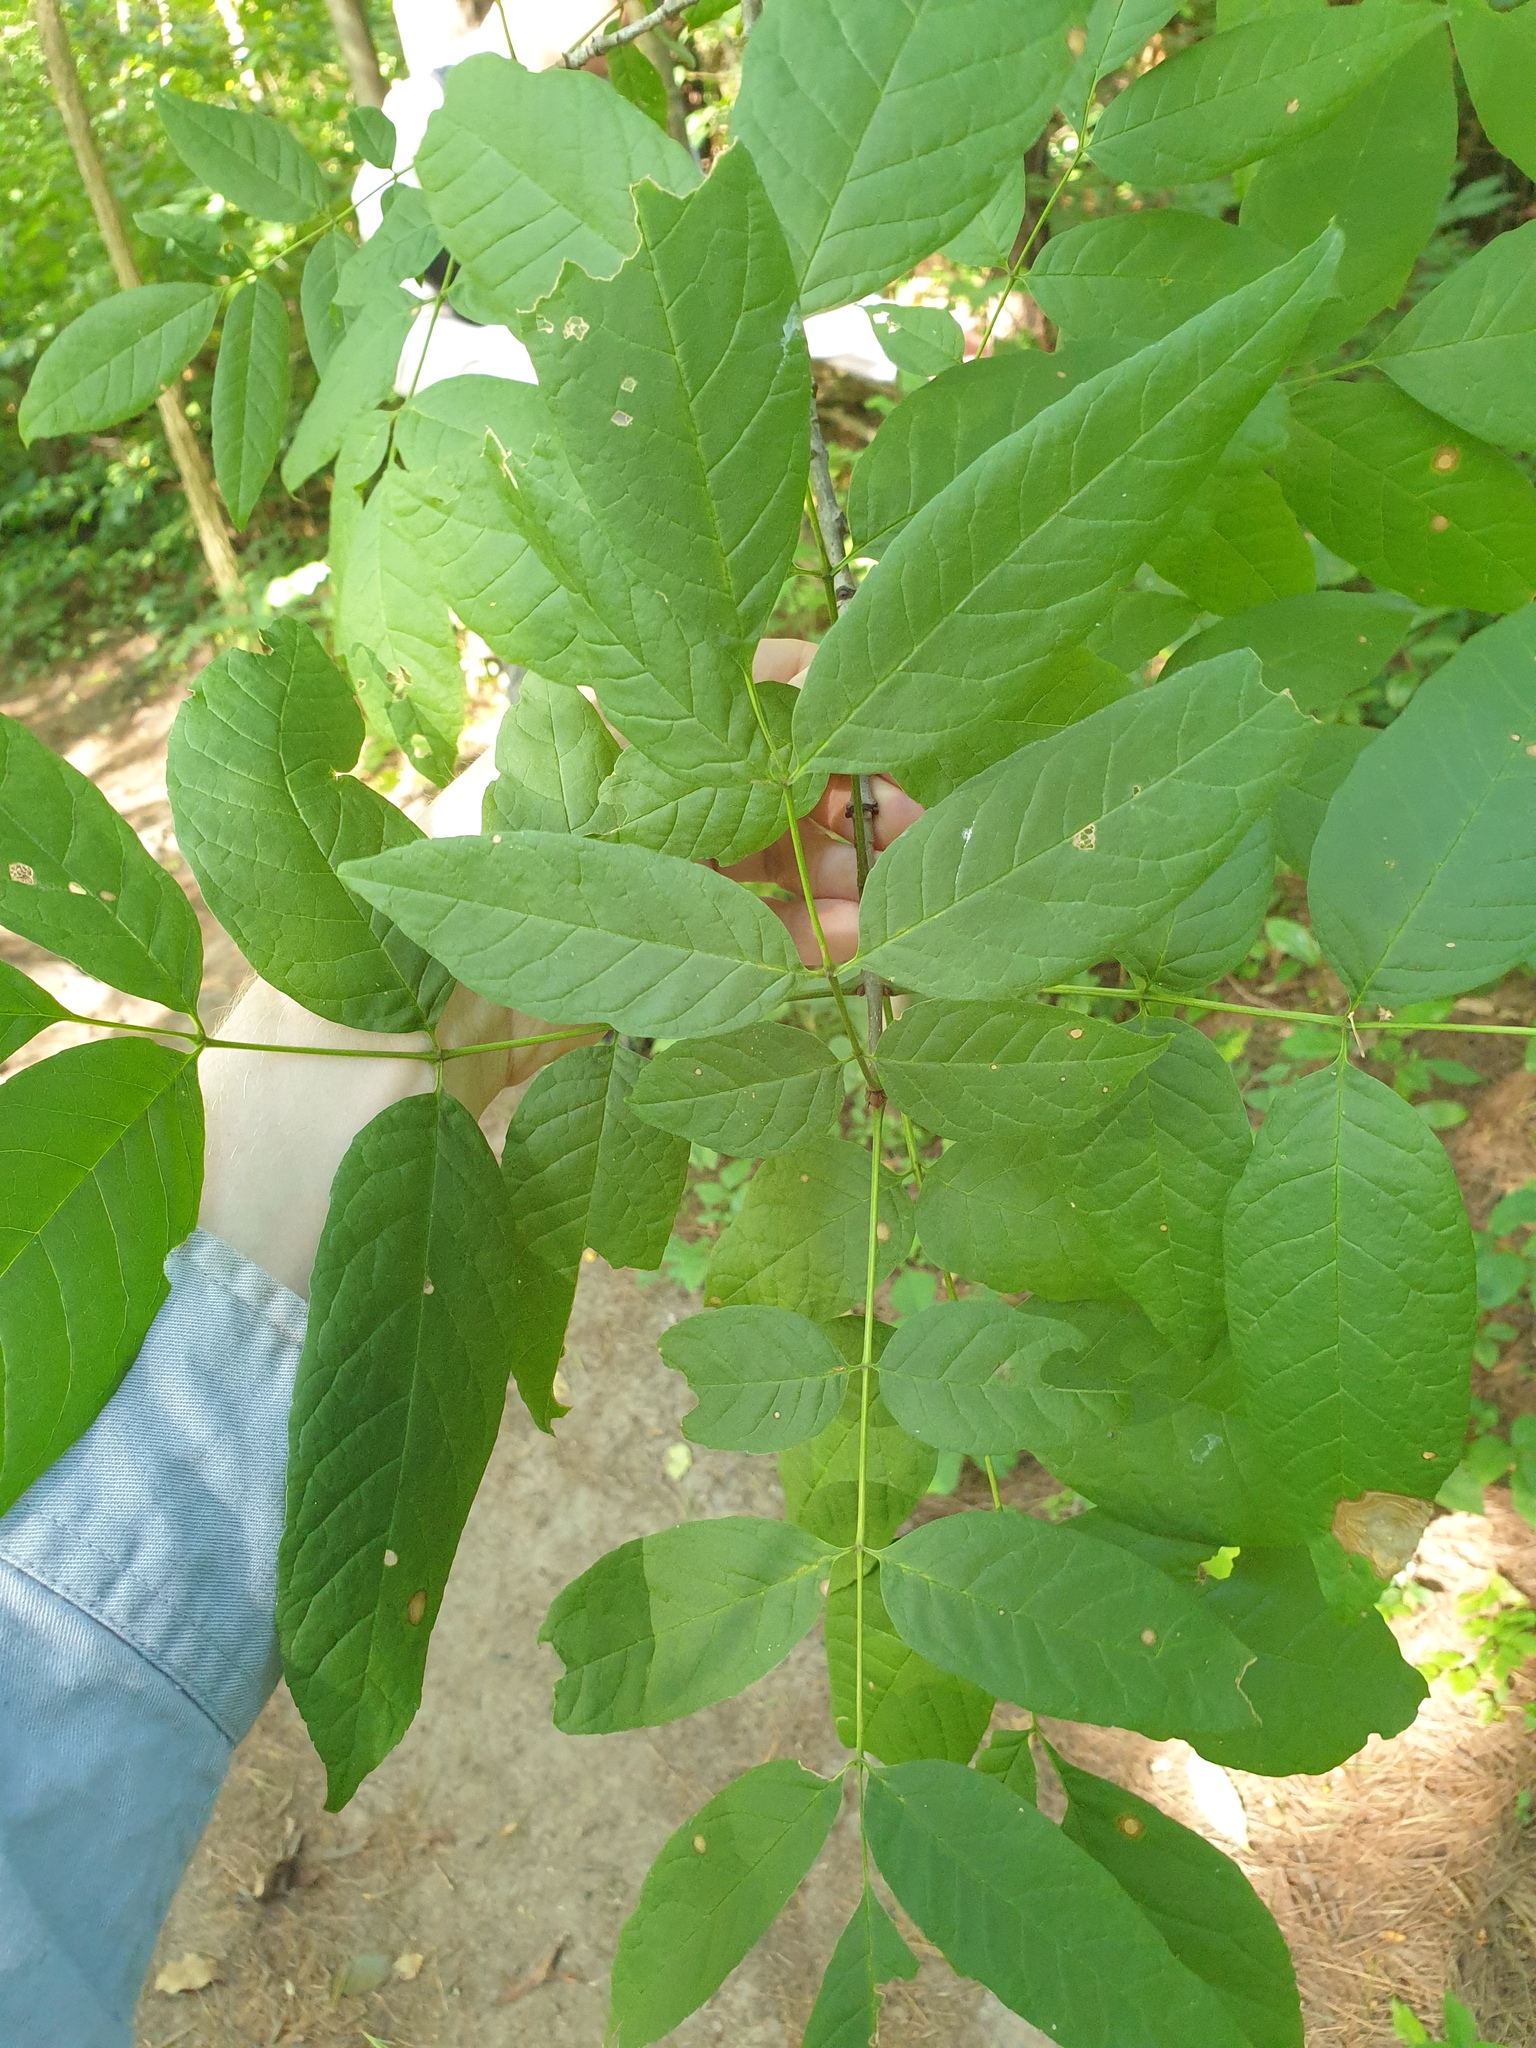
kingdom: Plantae
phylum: Tracheophyta
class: Magnoliopsida
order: Lamiales
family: Oleaceae
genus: Fraxinus
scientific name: Fraxinus americana
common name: White ash
